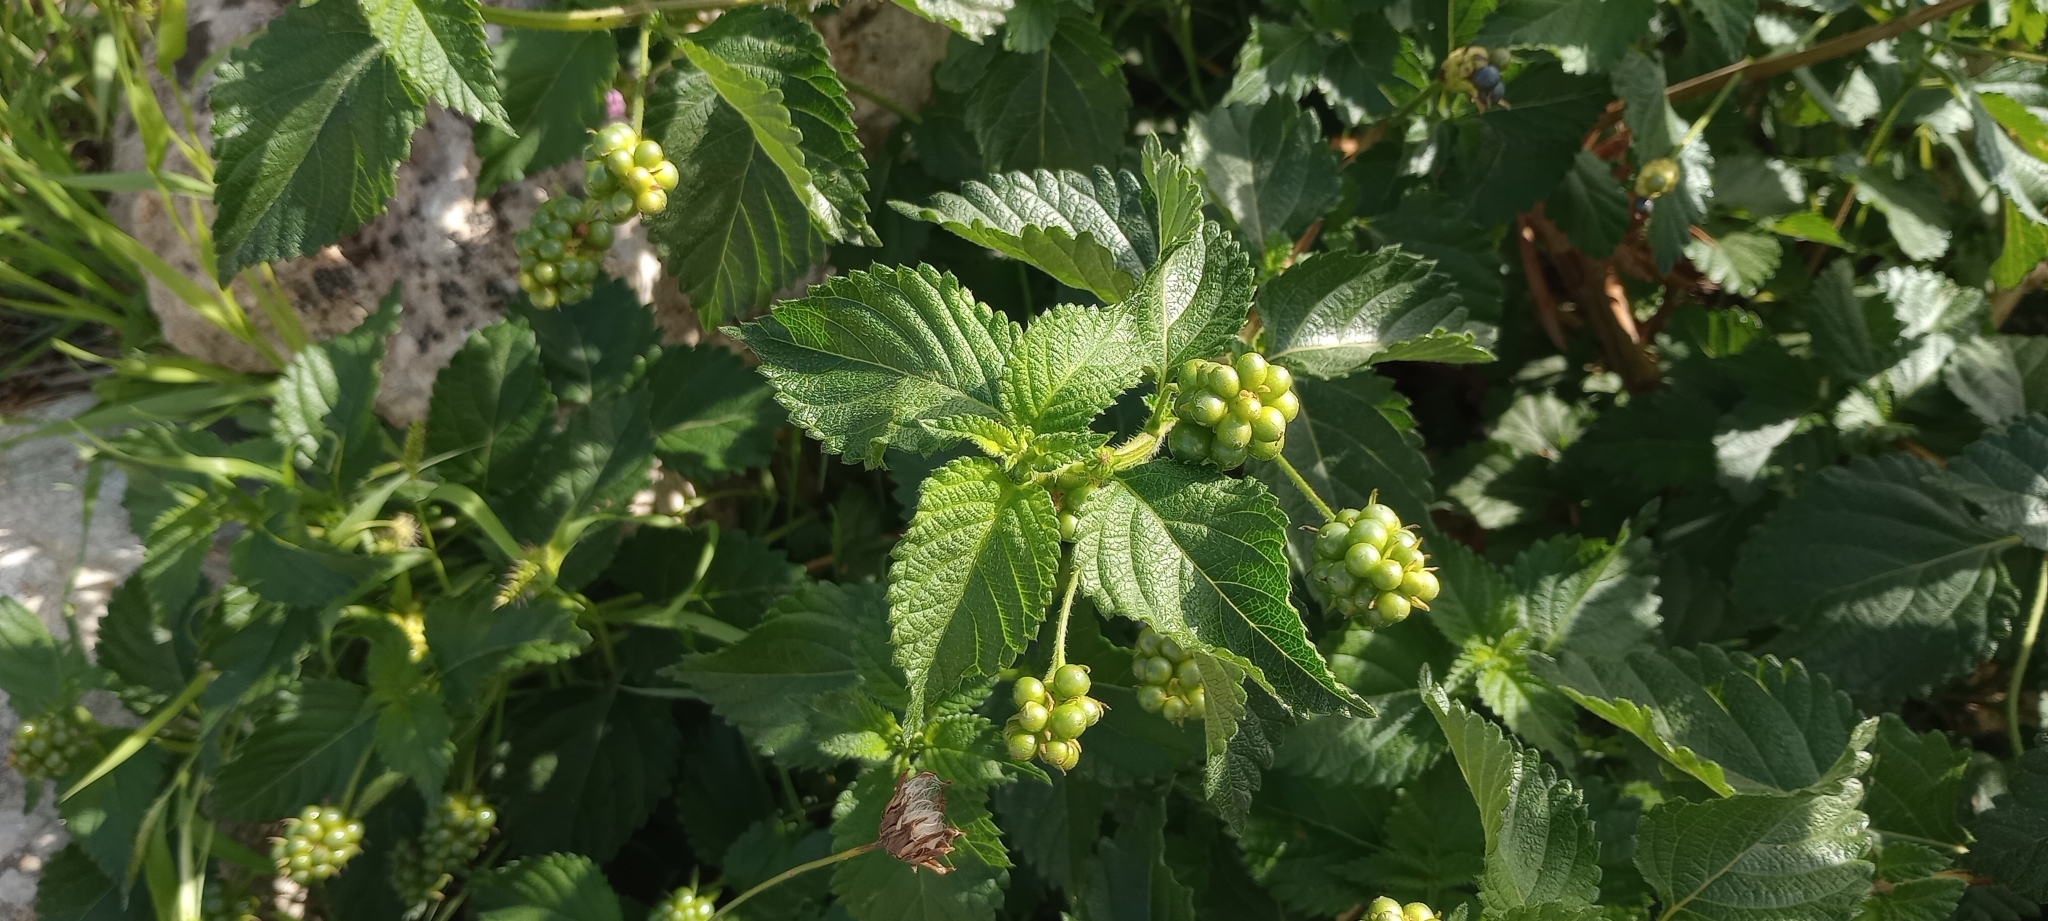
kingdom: Plantae
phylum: Tracheophyta
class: Magnoliopsida
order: Lamiales
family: Verbenaceae
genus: Lantana
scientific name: Lantana camara
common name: Lantana
